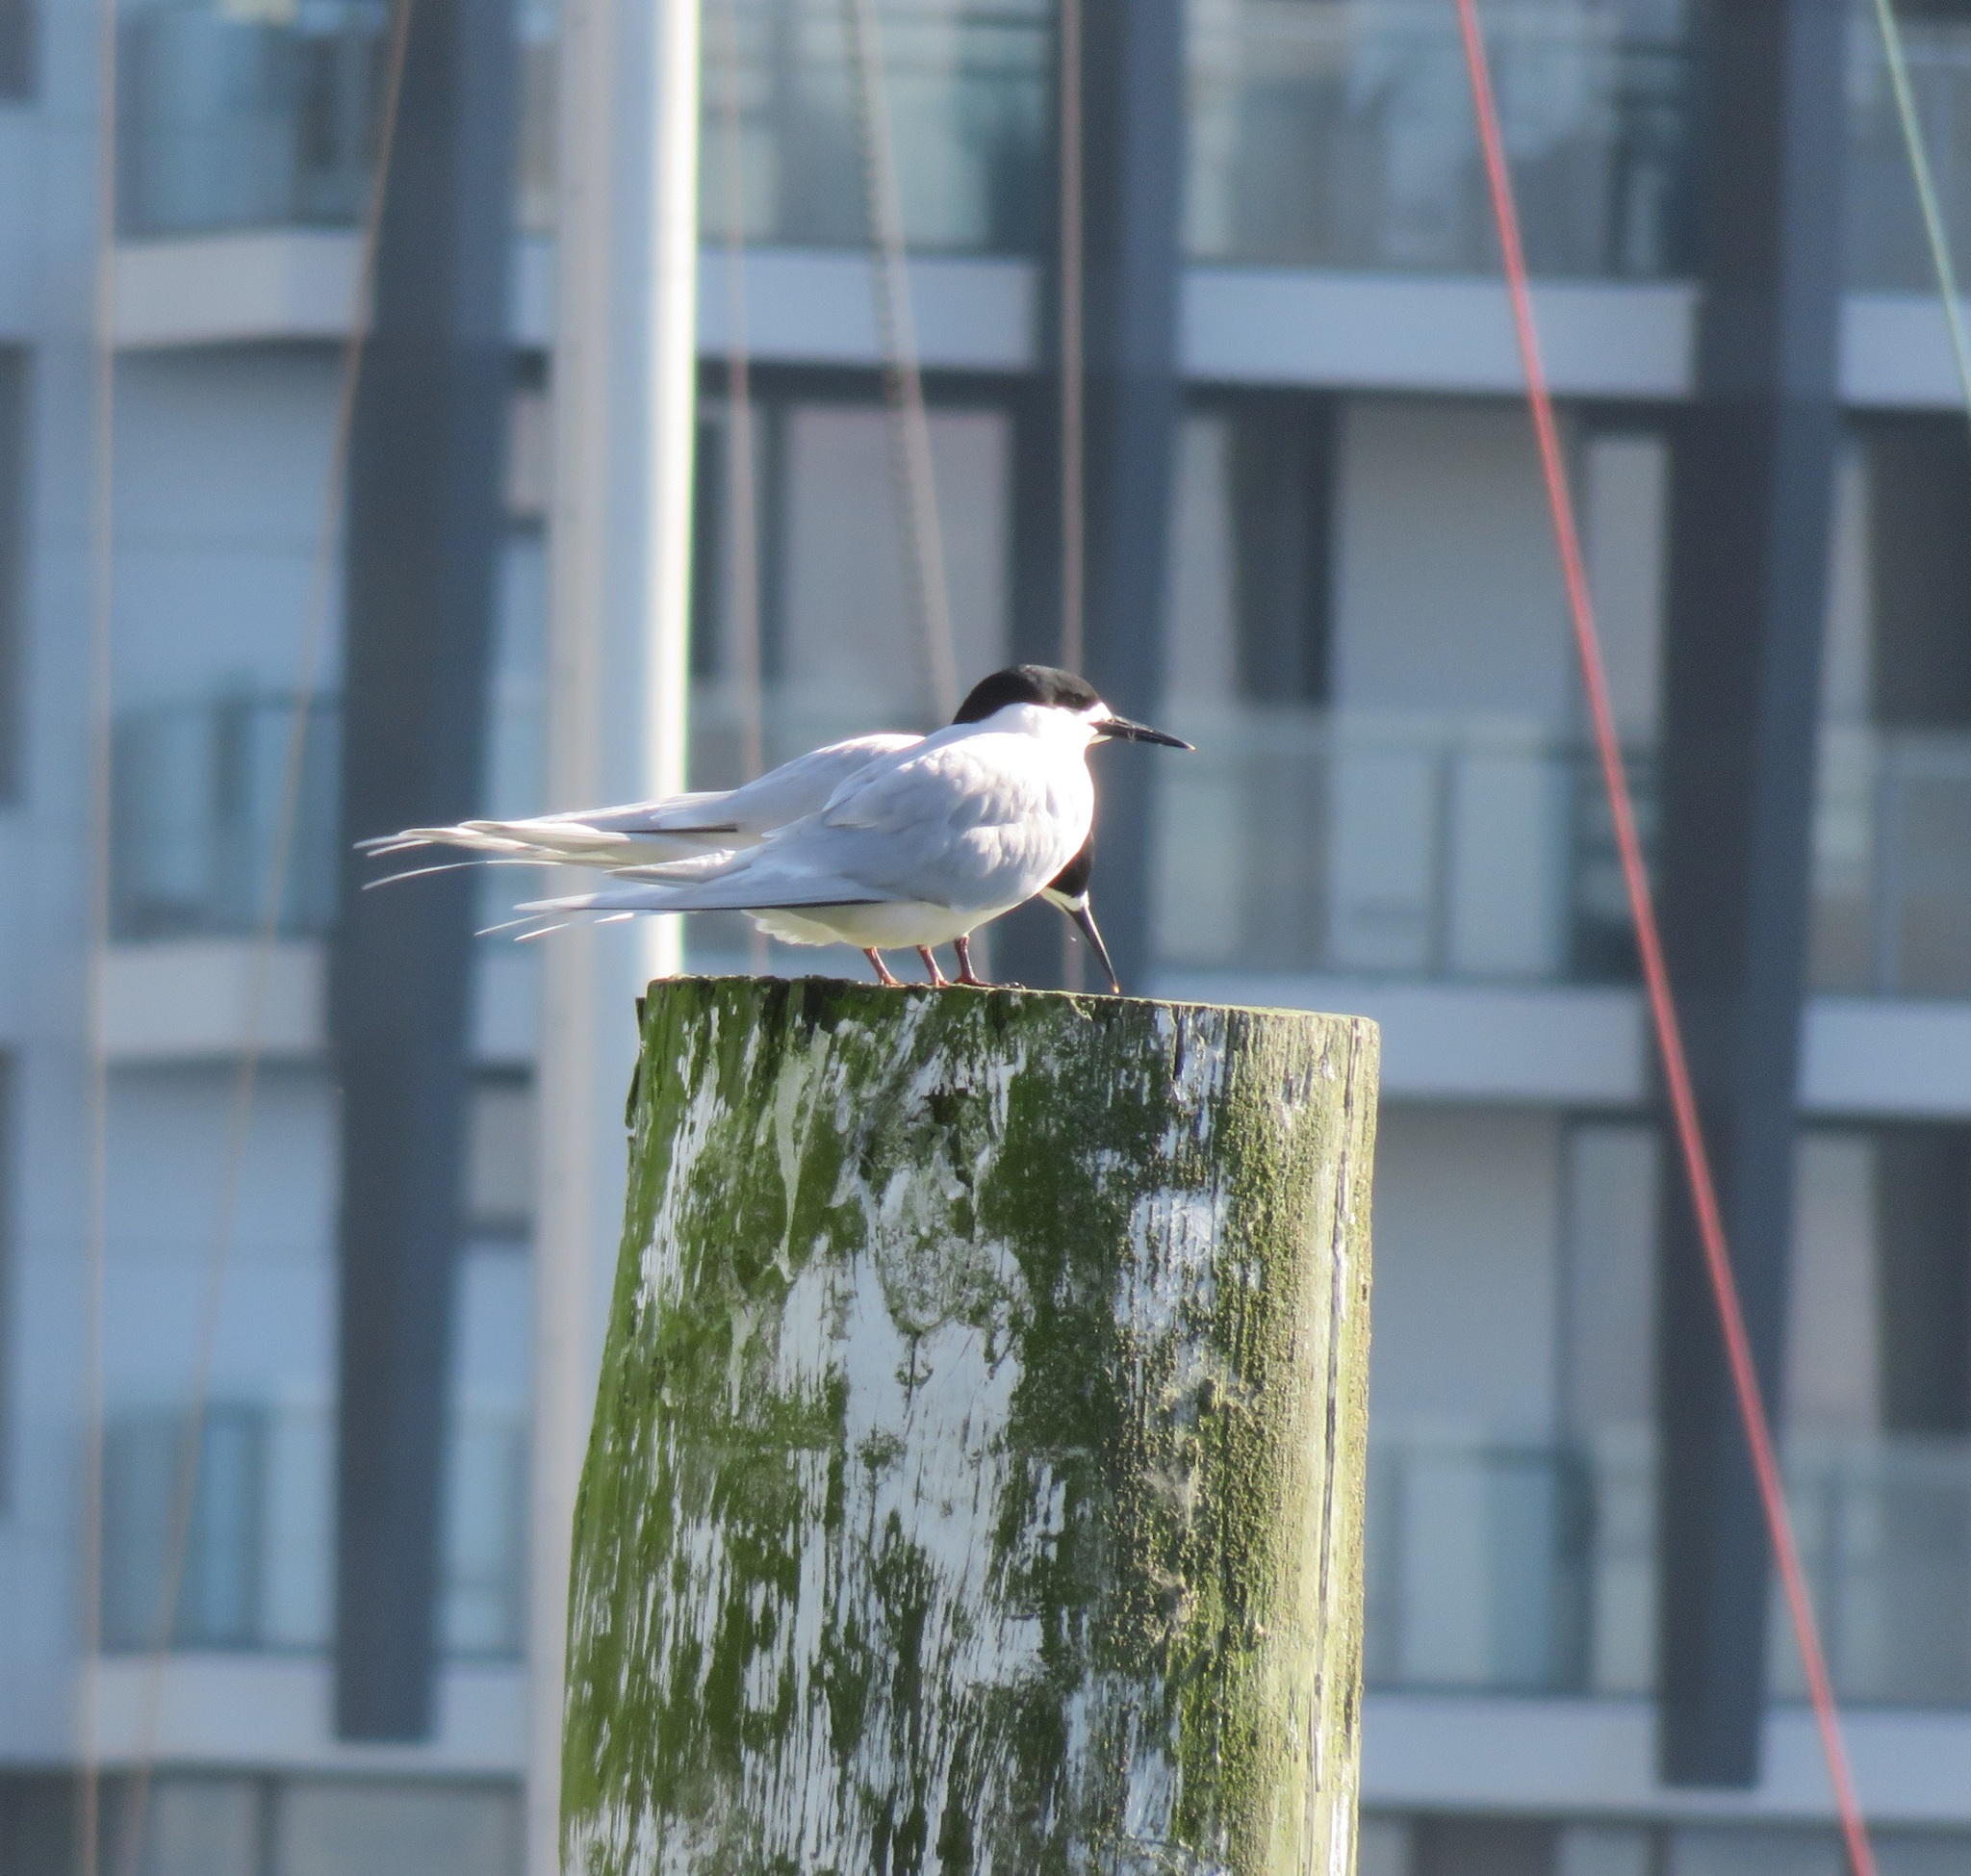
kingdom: Animalia
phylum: Chordata
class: Aves
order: Charadriiformes
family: Laridae
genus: Sterna
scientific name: Sterna striata
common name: White-fronted tern
